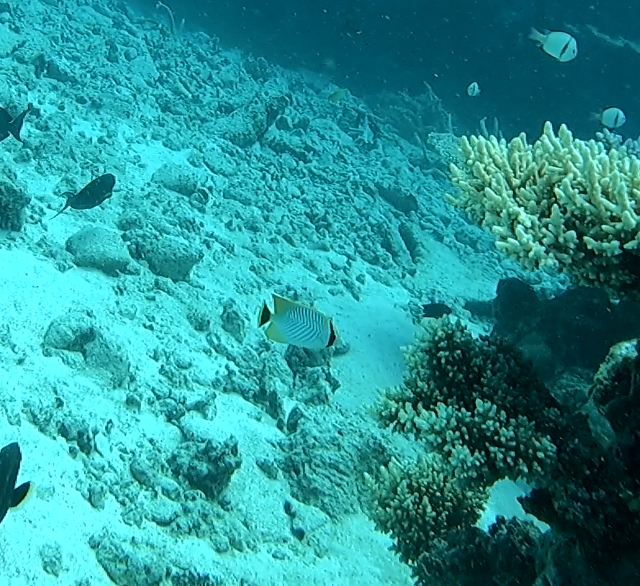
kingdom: Animalia
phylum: Chordata
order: Perciformes
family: Chaetodontidae
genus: Chaetodon
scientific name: Chaetodon trifascialis
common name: Chevroned butterflyfish
